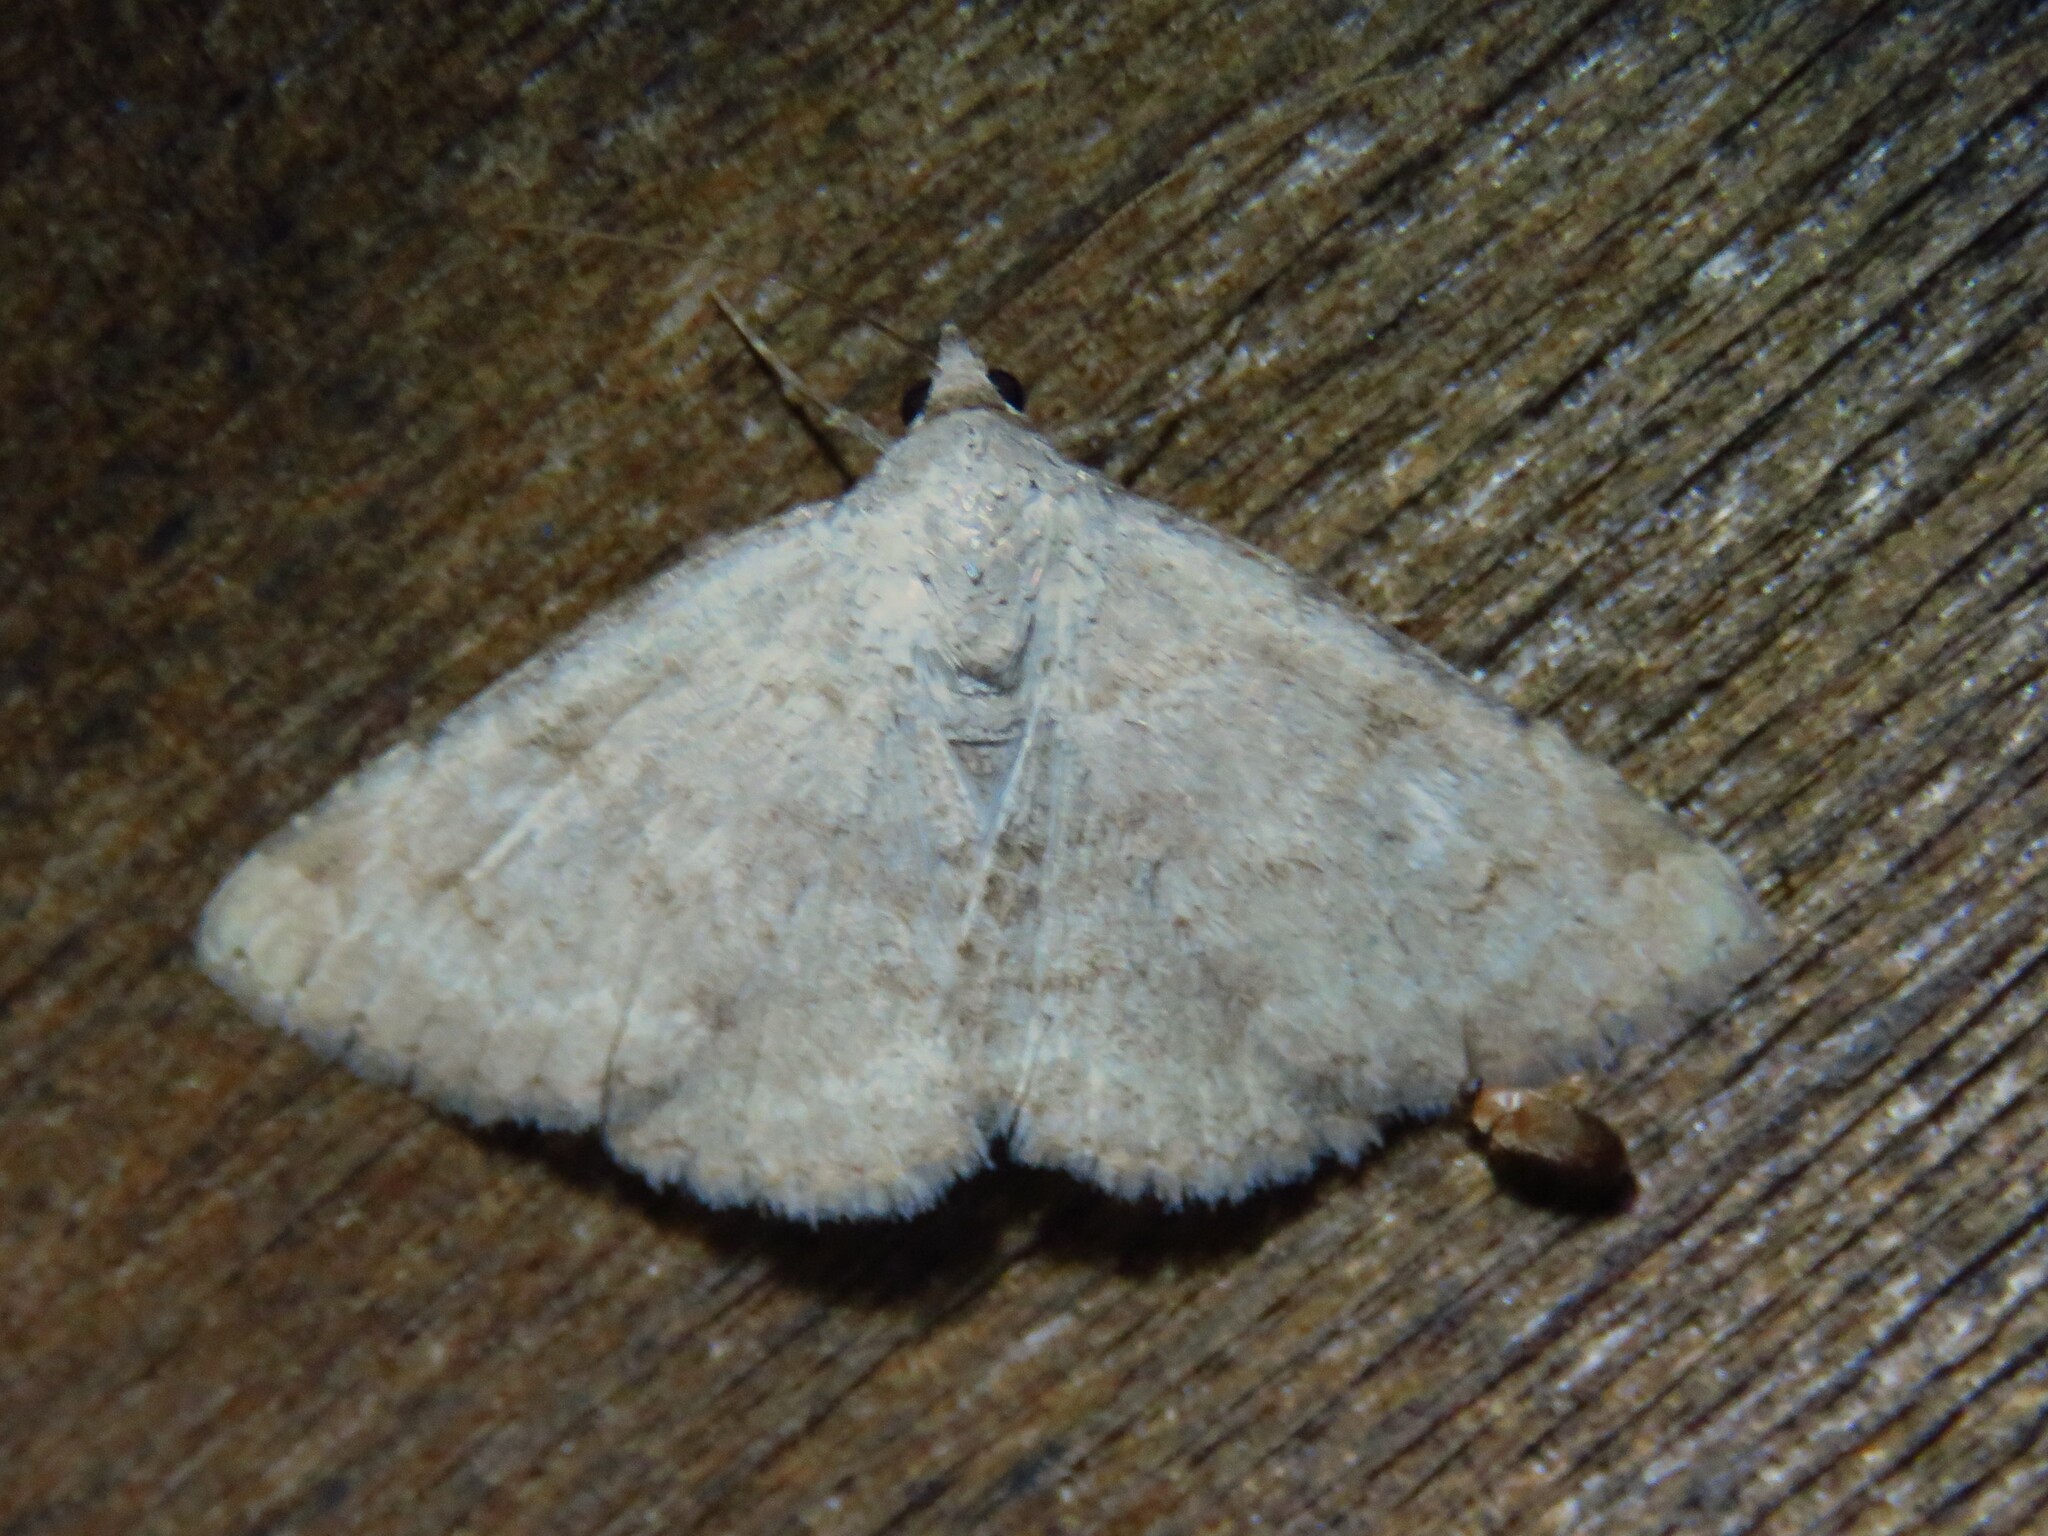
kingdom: Animalia
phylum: Arthropoda
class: Insecta
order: Lepidoptera
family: Erebidae
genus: Toxonprucha
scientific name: Toxonprucha volucris
